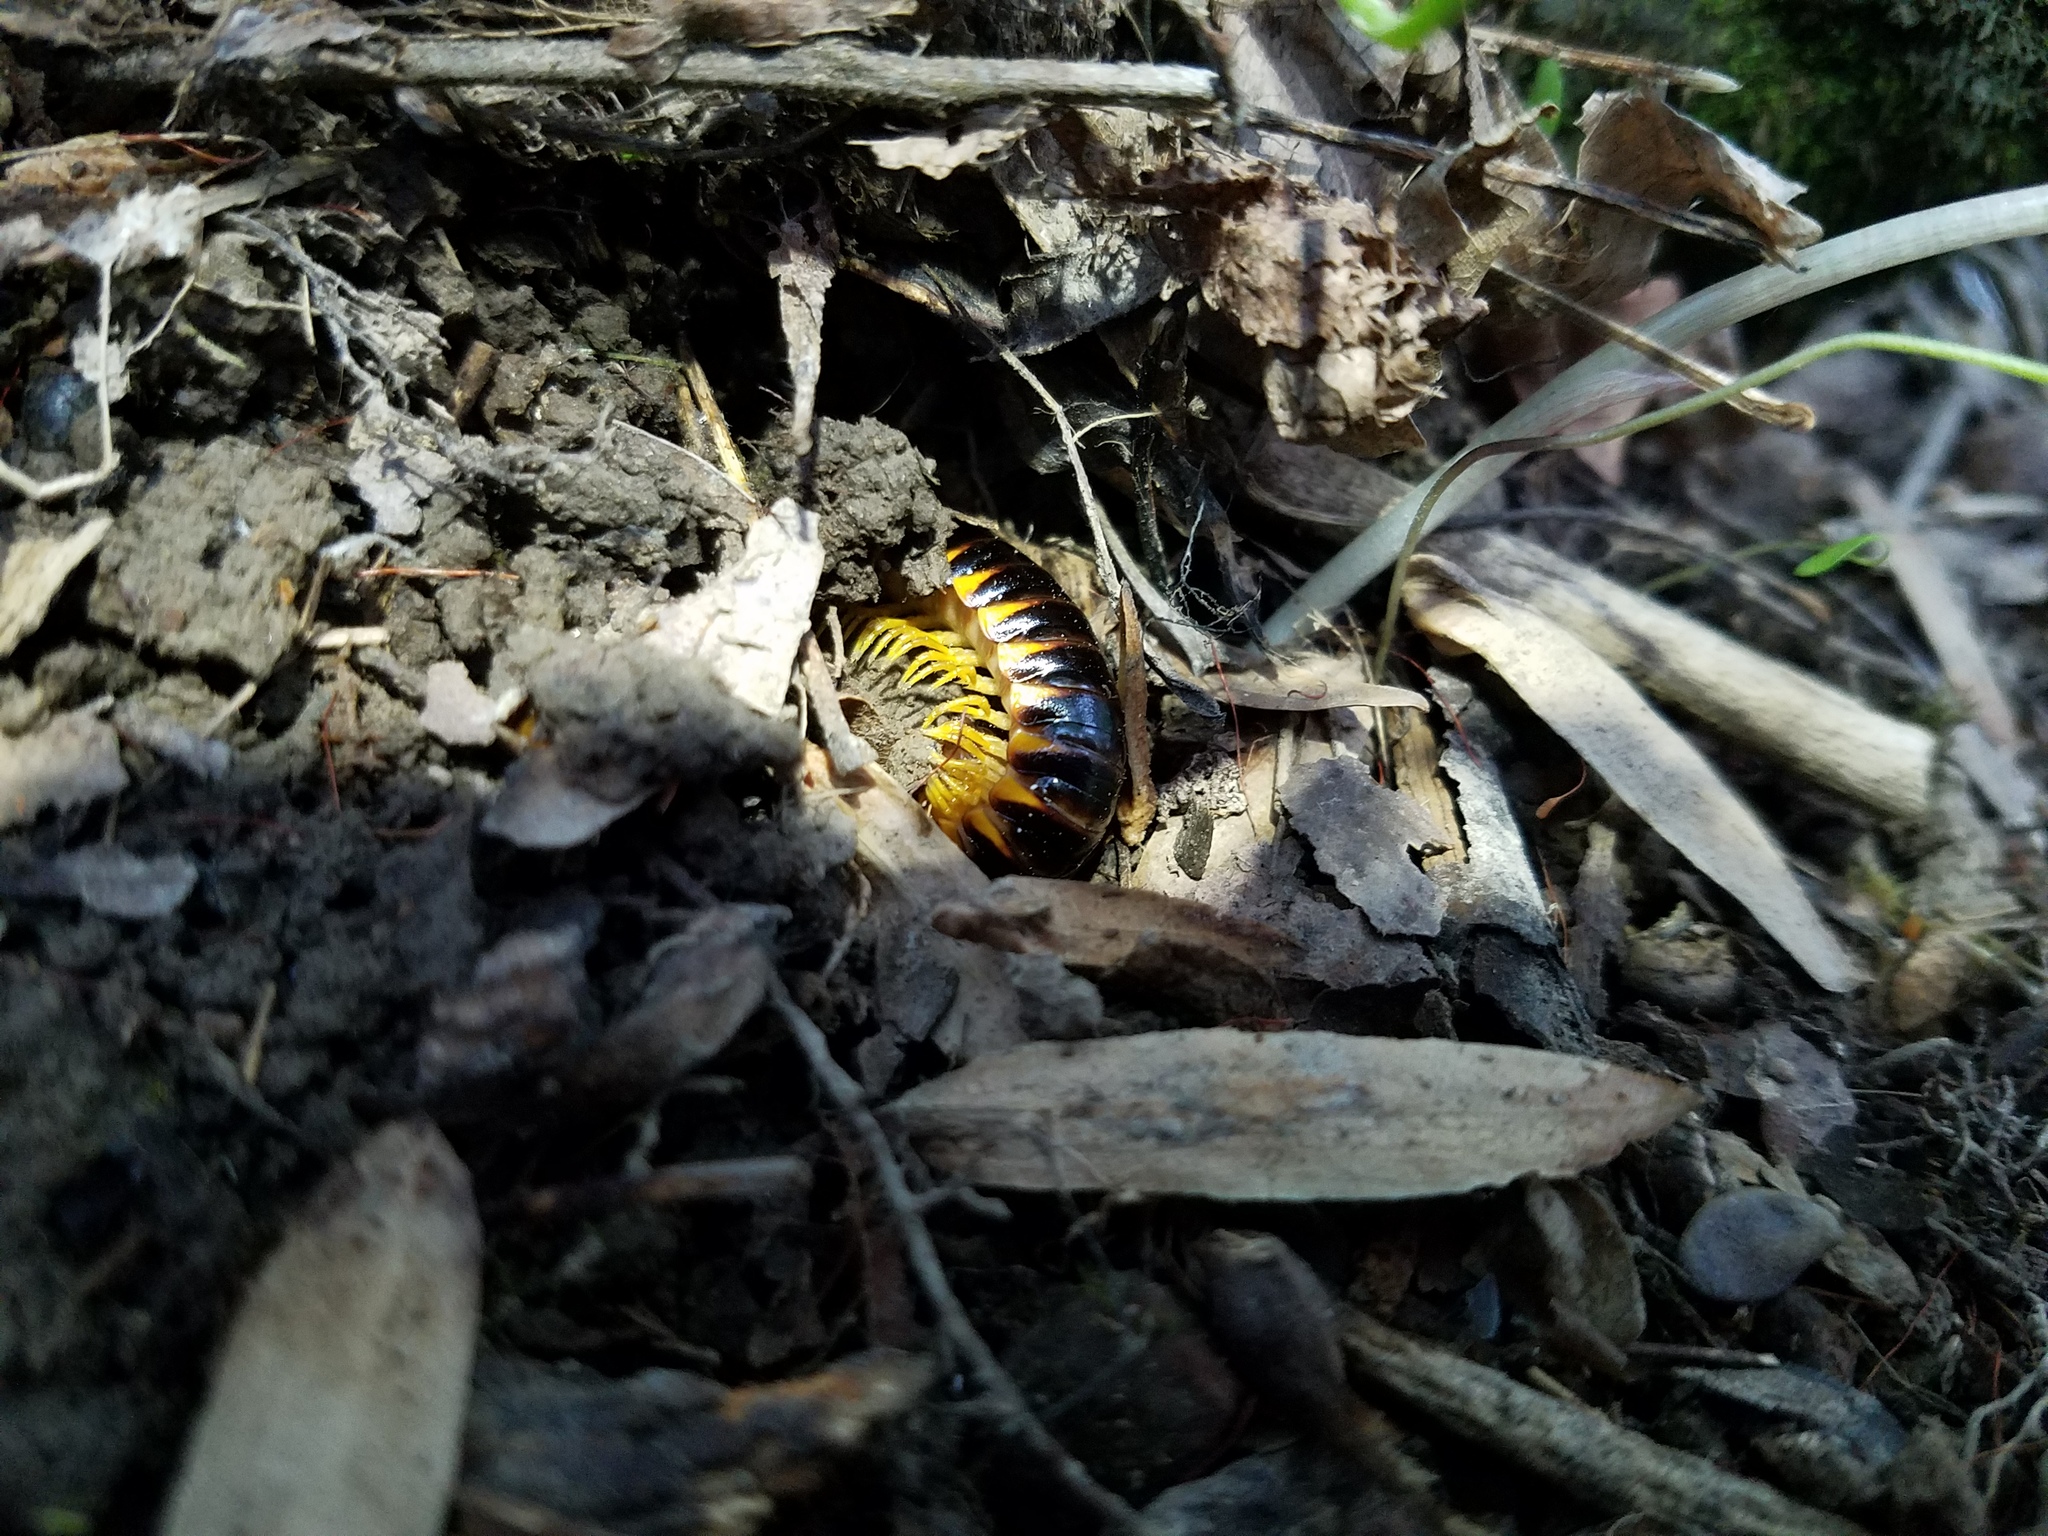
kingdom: Animalia
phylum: Arthropoda
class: Diplopoda
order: Polydesmida
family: Xystodesmidae
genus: Apheloria
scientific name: Apheloria virginiensis
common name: Black-and-gold flat millipede
